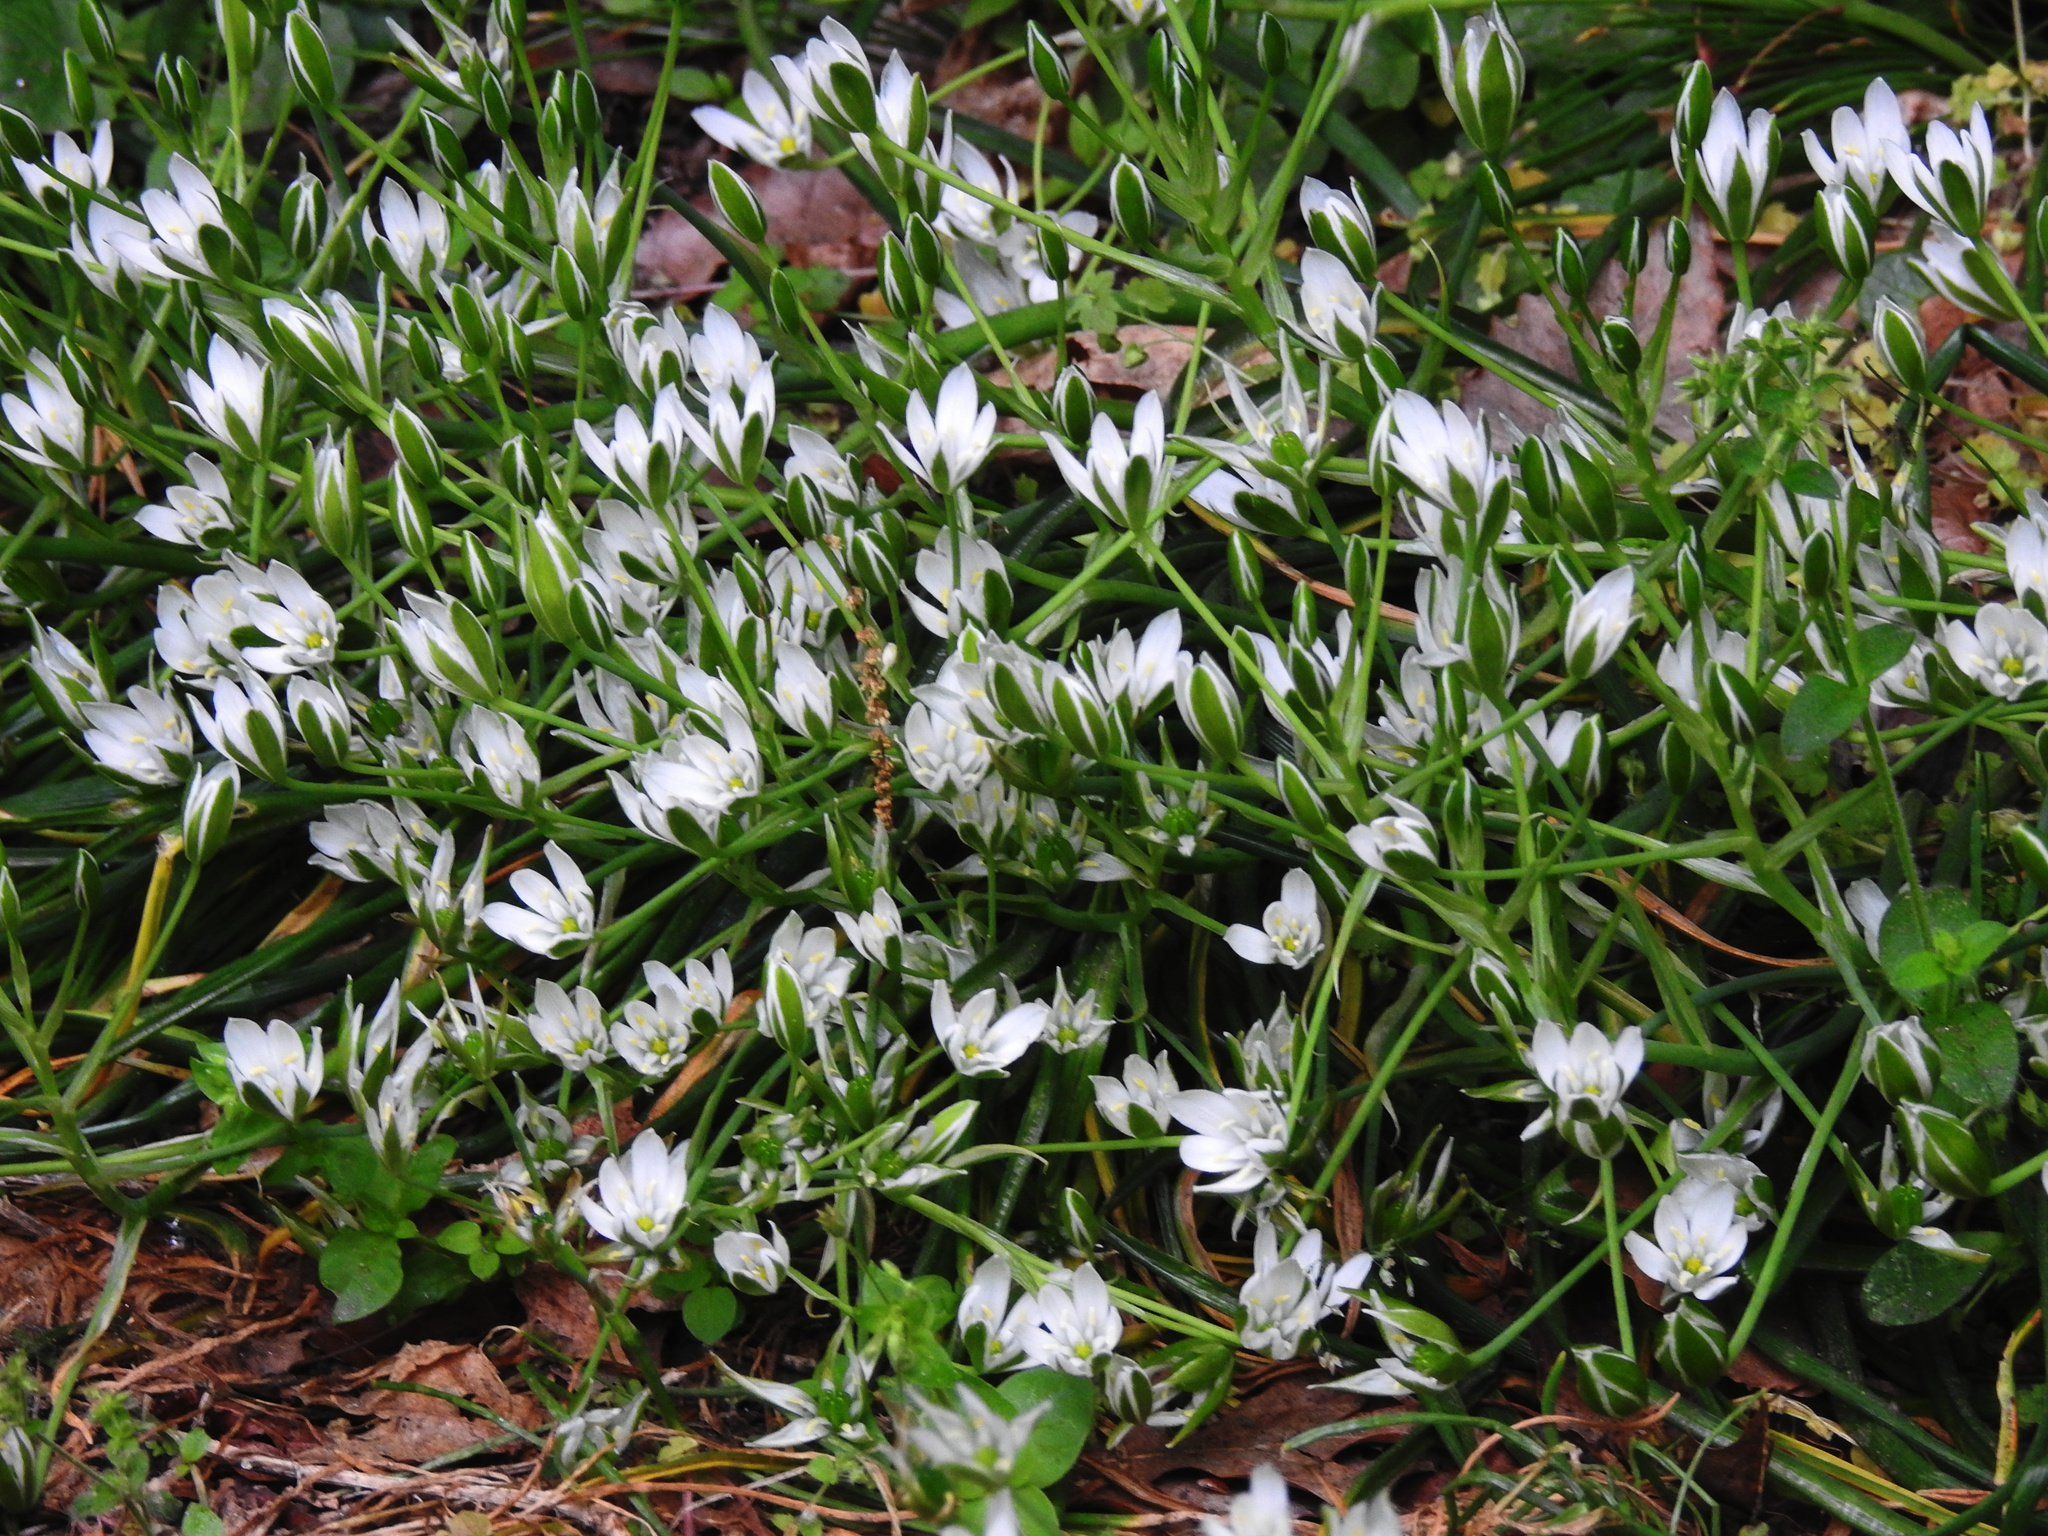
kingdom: Plantae
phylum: Tracheophyta
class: Liliopsida
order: Asparagales
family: Asparagaceae
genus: Ornithogalum
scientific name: Ornithogalum umbellatum
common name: Garden star-of-bethlehem
